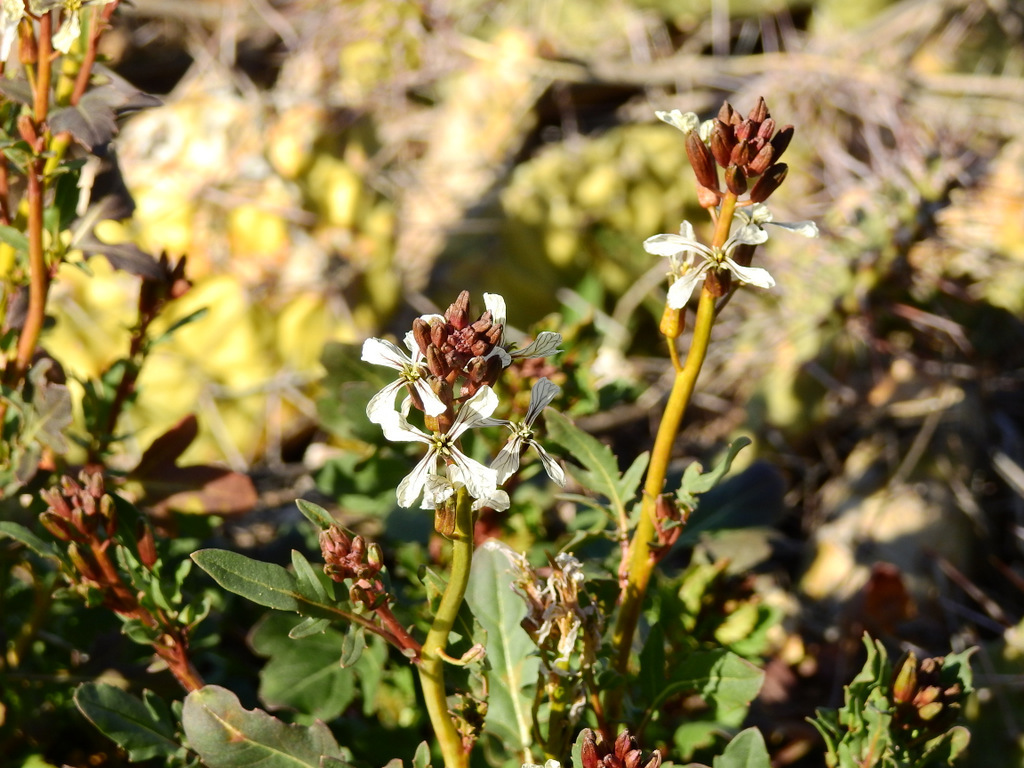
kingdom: Plantae
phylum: Tracheophyta
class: Magnoliopsida
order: Brassicales
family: Brassicaceae
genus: Eruca
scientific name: Eruca vesicaria
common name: Garden rocket
